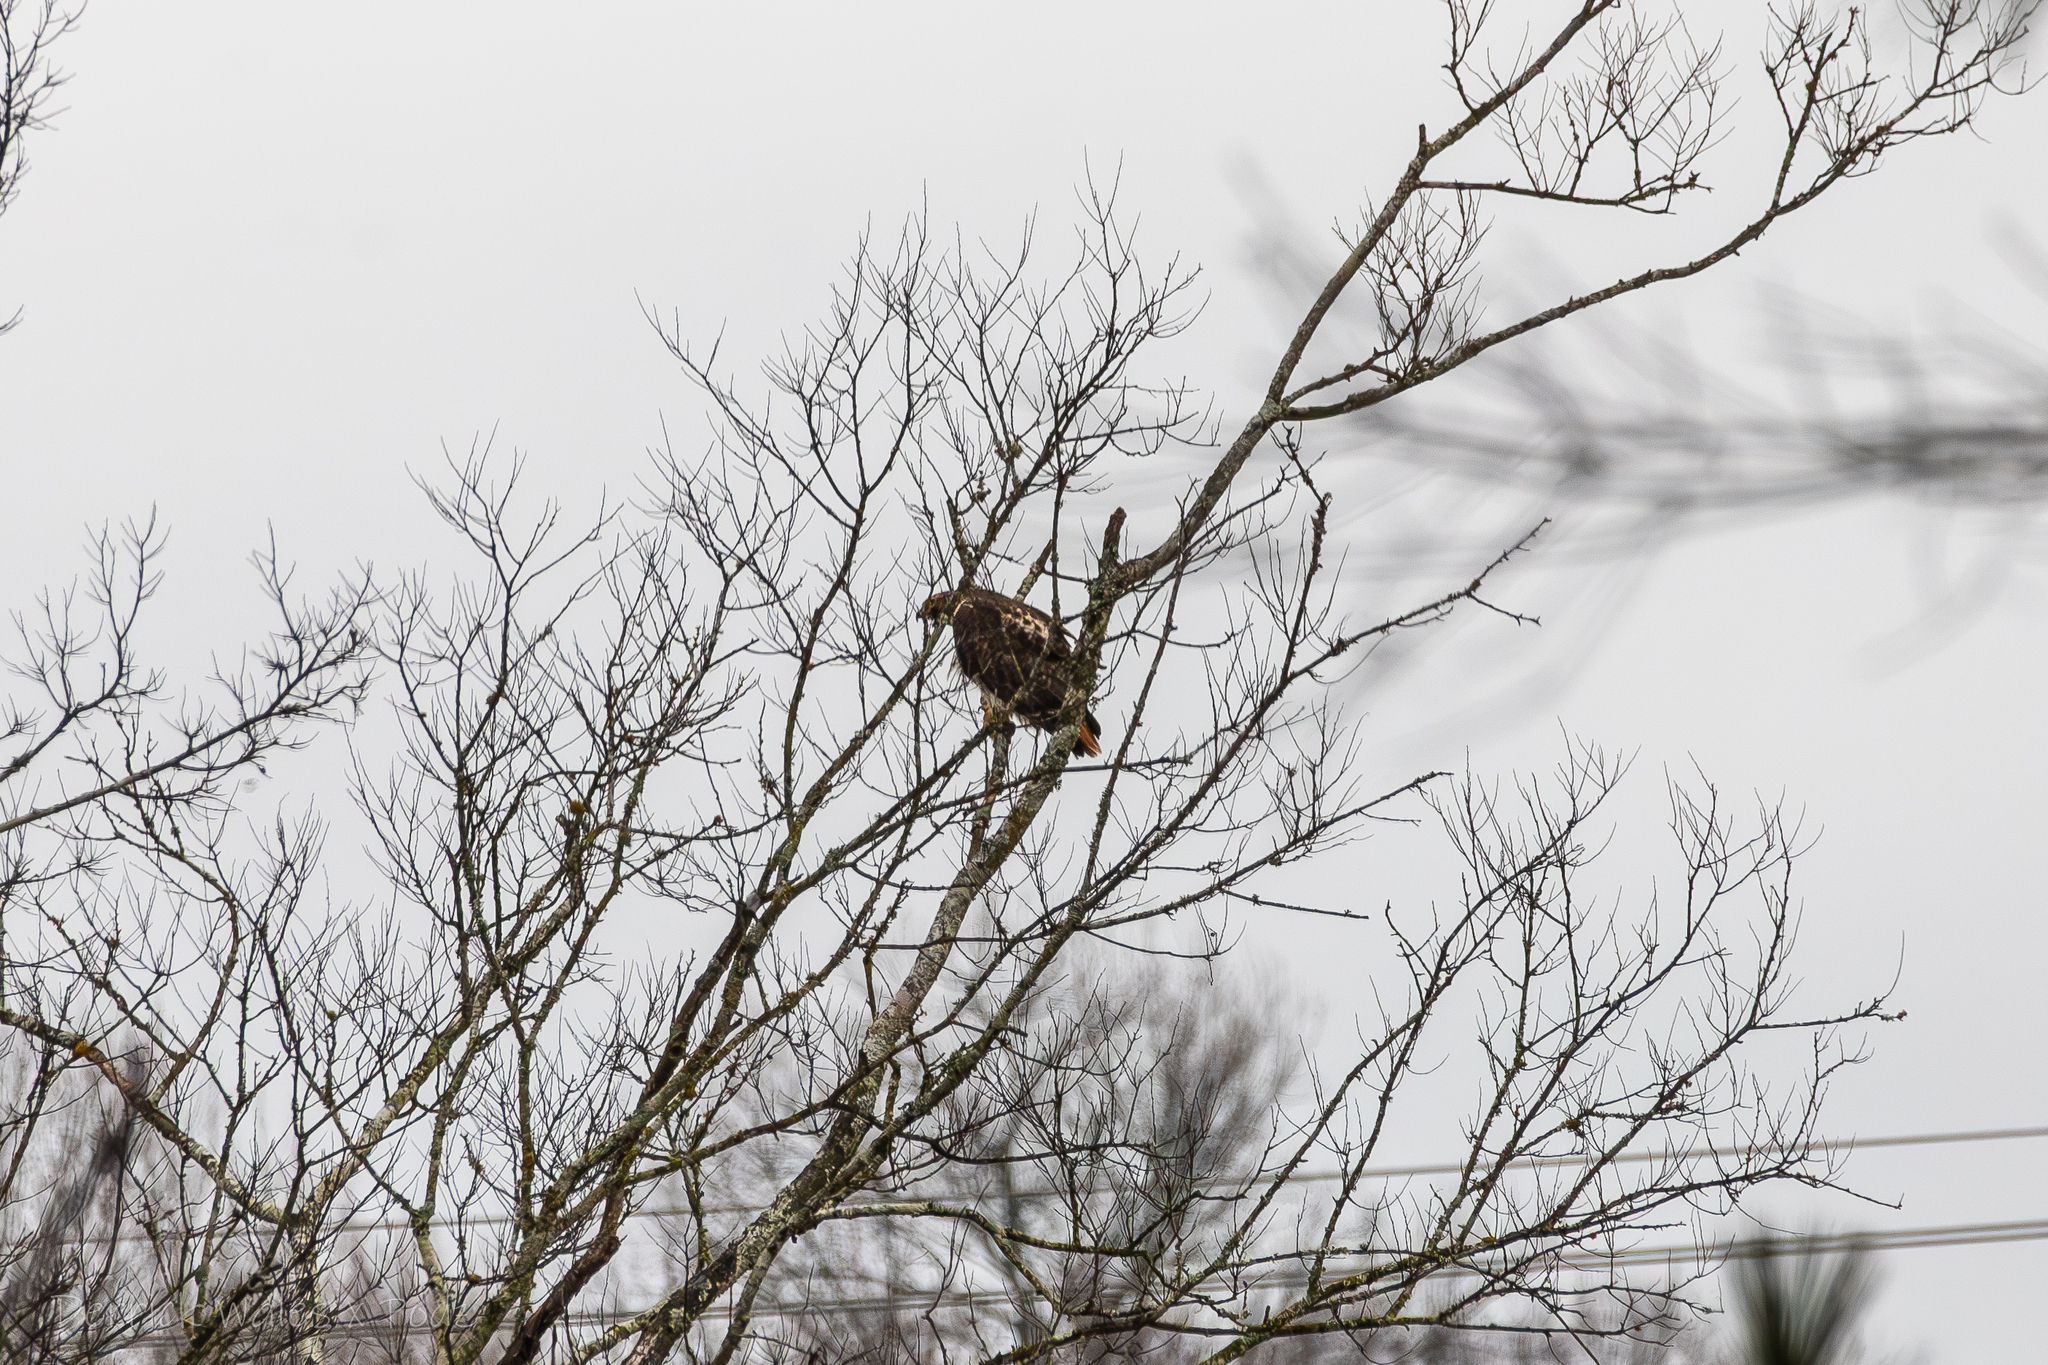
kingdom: Animalia
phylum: Chordata
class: Aves
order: Accipitriformes
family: Accipitridae
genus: Buteo
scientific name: Buteo jamaicensis
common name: Red-tailed hawk
